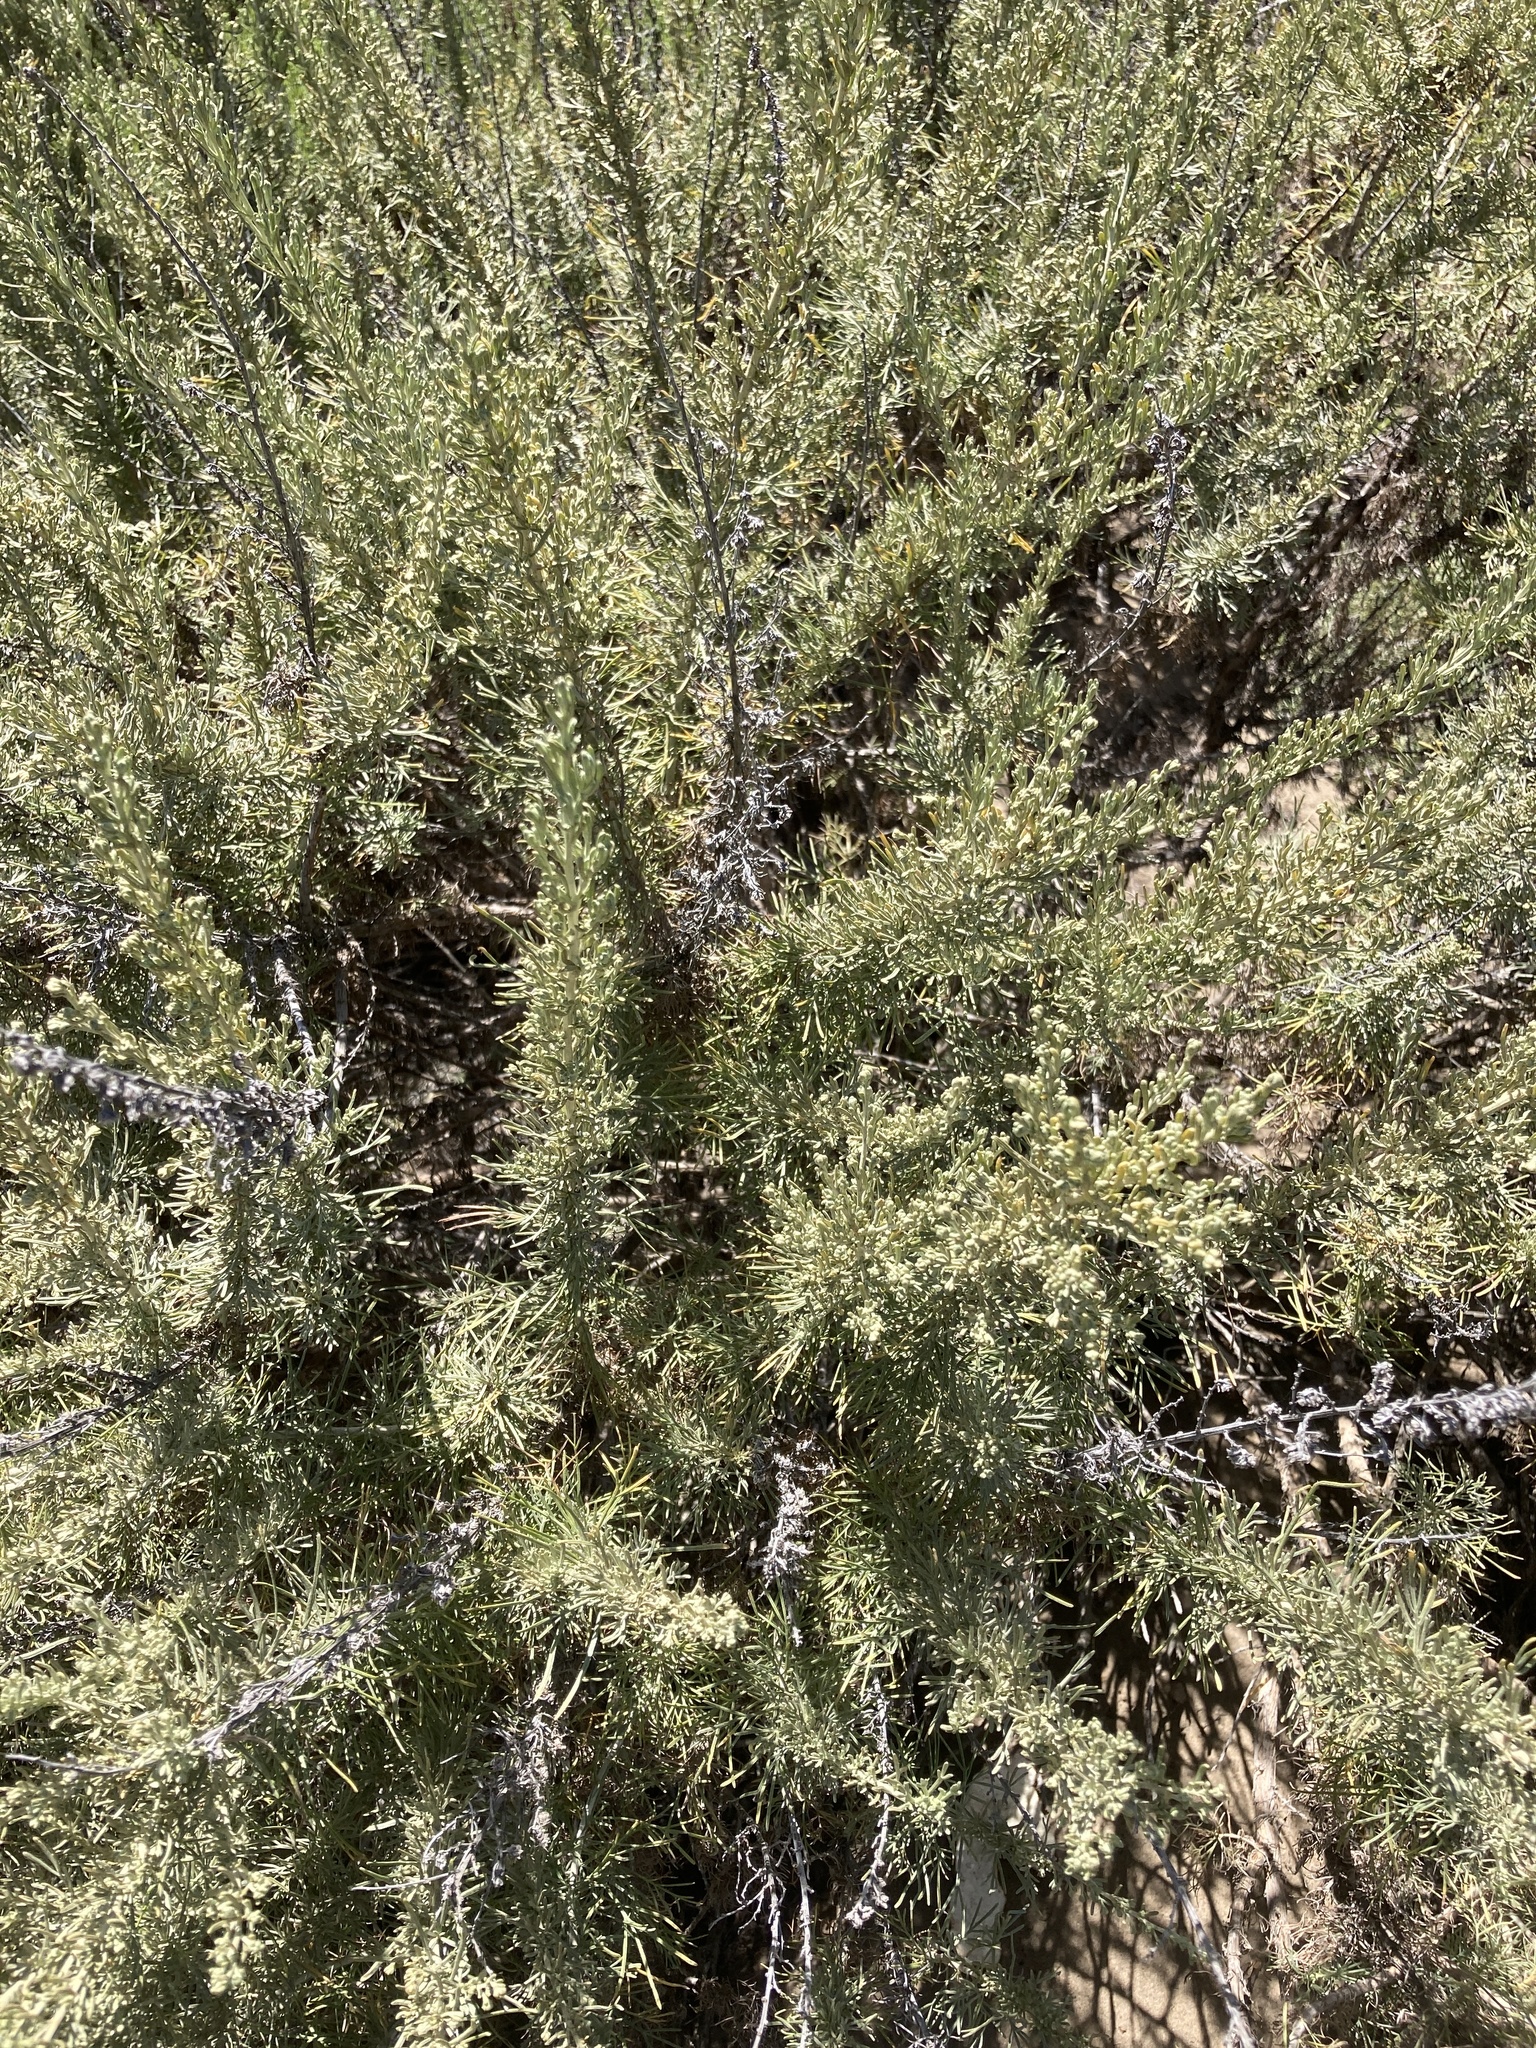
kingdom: Plantae
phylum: Tracheophyta
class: Magnoliopsida
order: Asterales
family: Asteraceae
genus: Artemisia
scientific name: Artemisia californica
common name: California sagebrush
